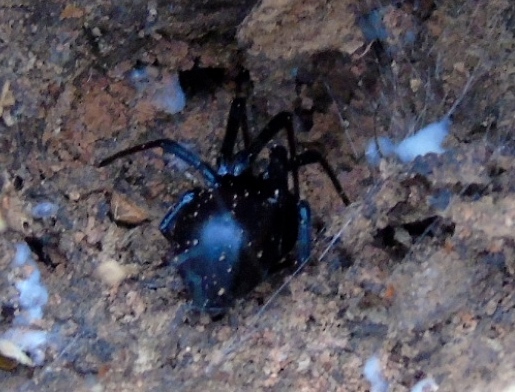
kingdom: Animalia
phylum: Arthropoda
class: Arachnida
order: Araneae
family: Theridiidae
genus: Latrodectus
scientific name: Latrodectus mactans
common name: Cobweb spiders
